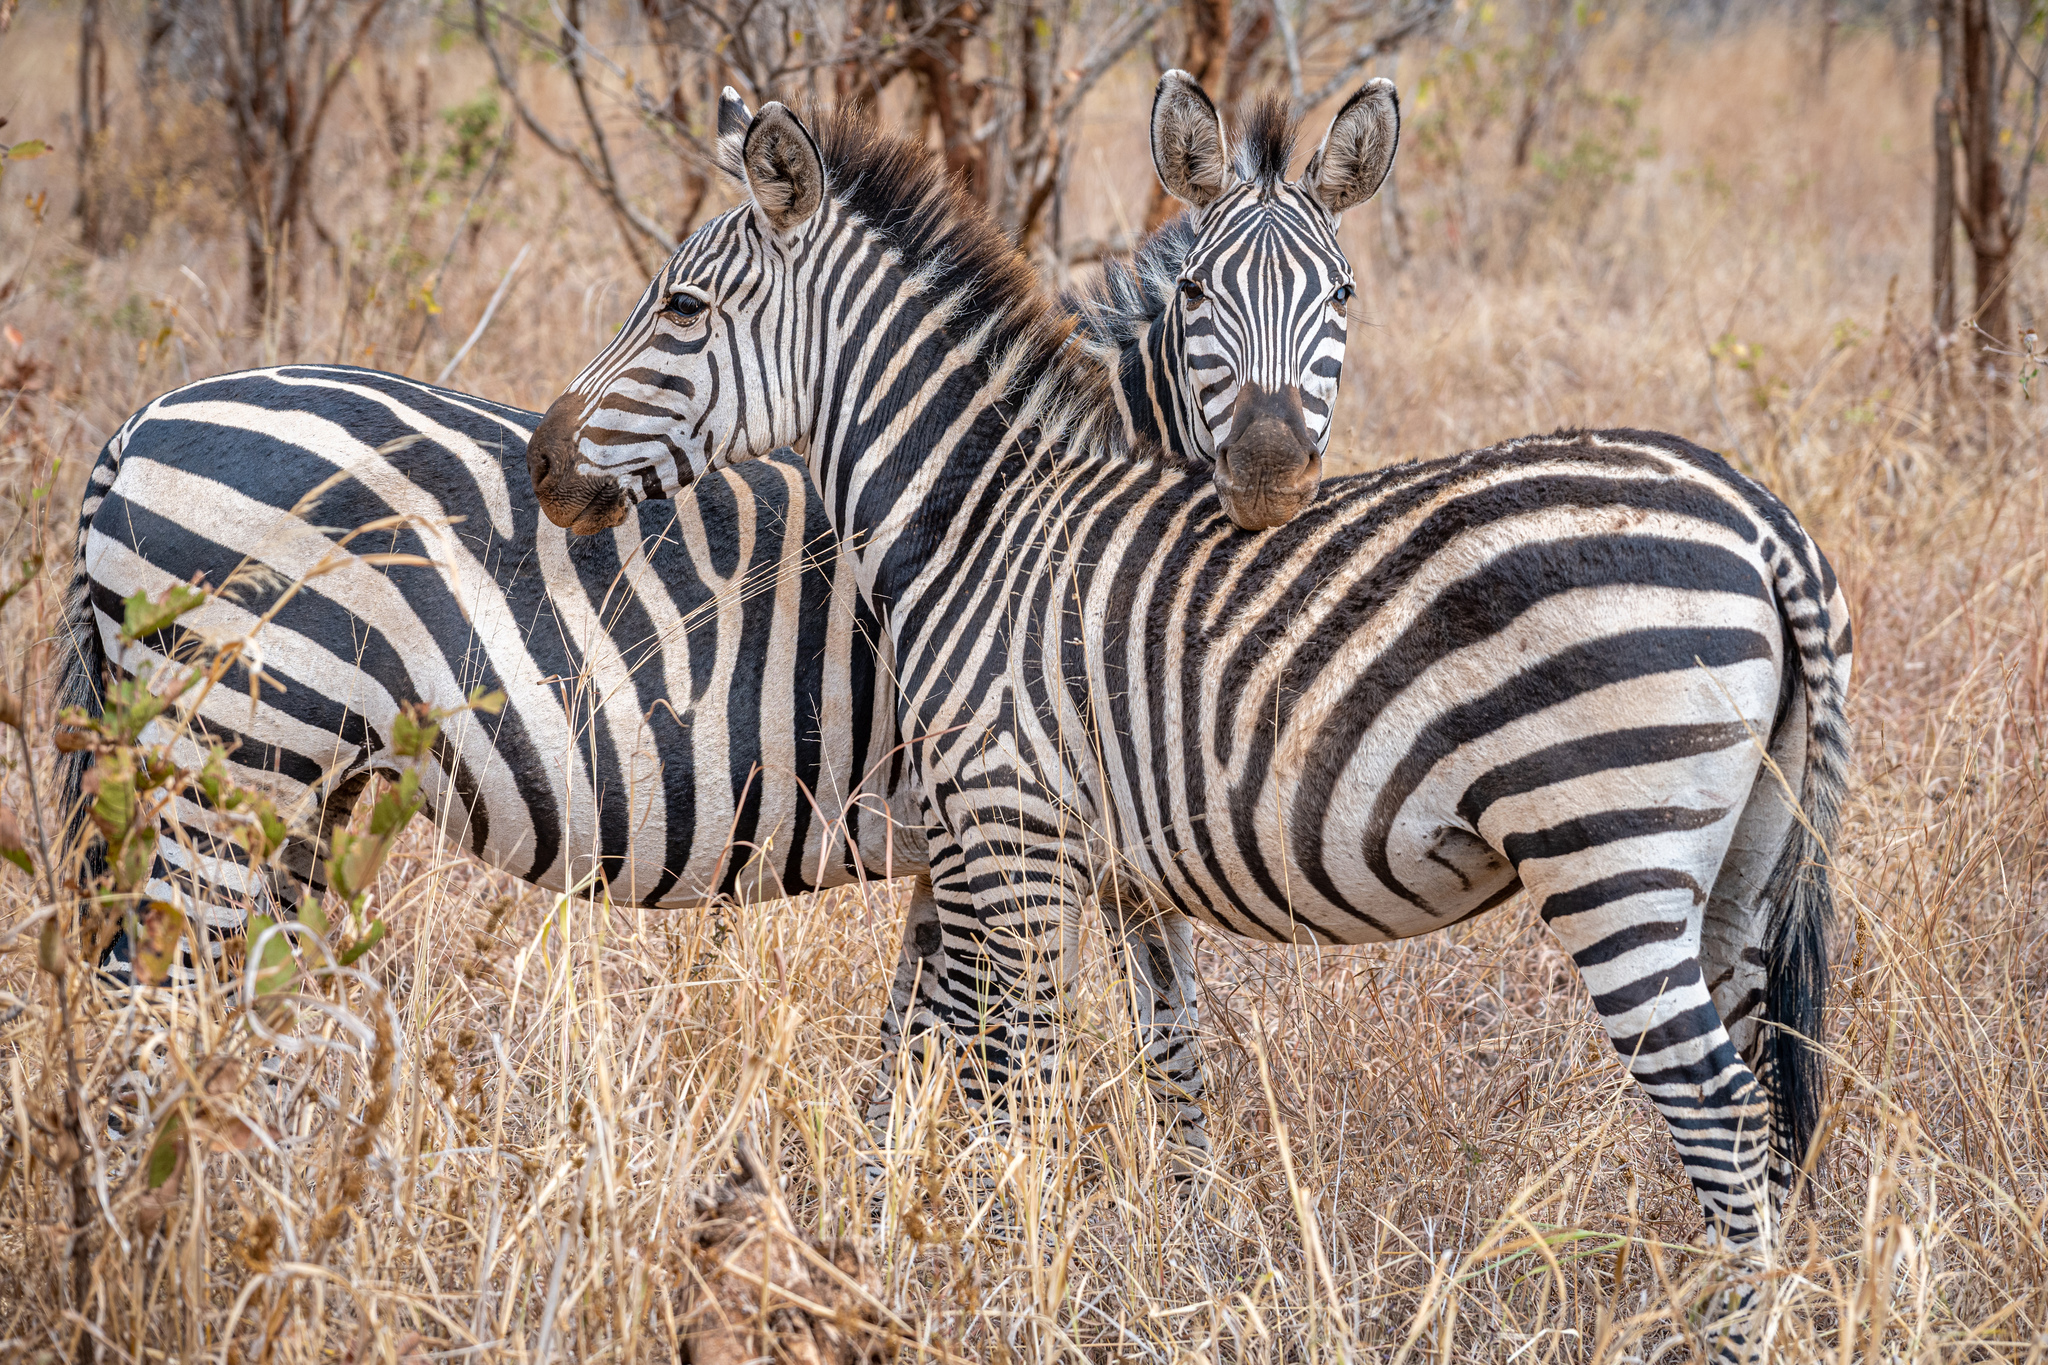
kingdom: Animalia
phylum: Chordata
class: Mammalia
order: Perissodactyla
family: Equidae
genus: Equus
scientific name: Equus quagga
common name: Plains zebra
